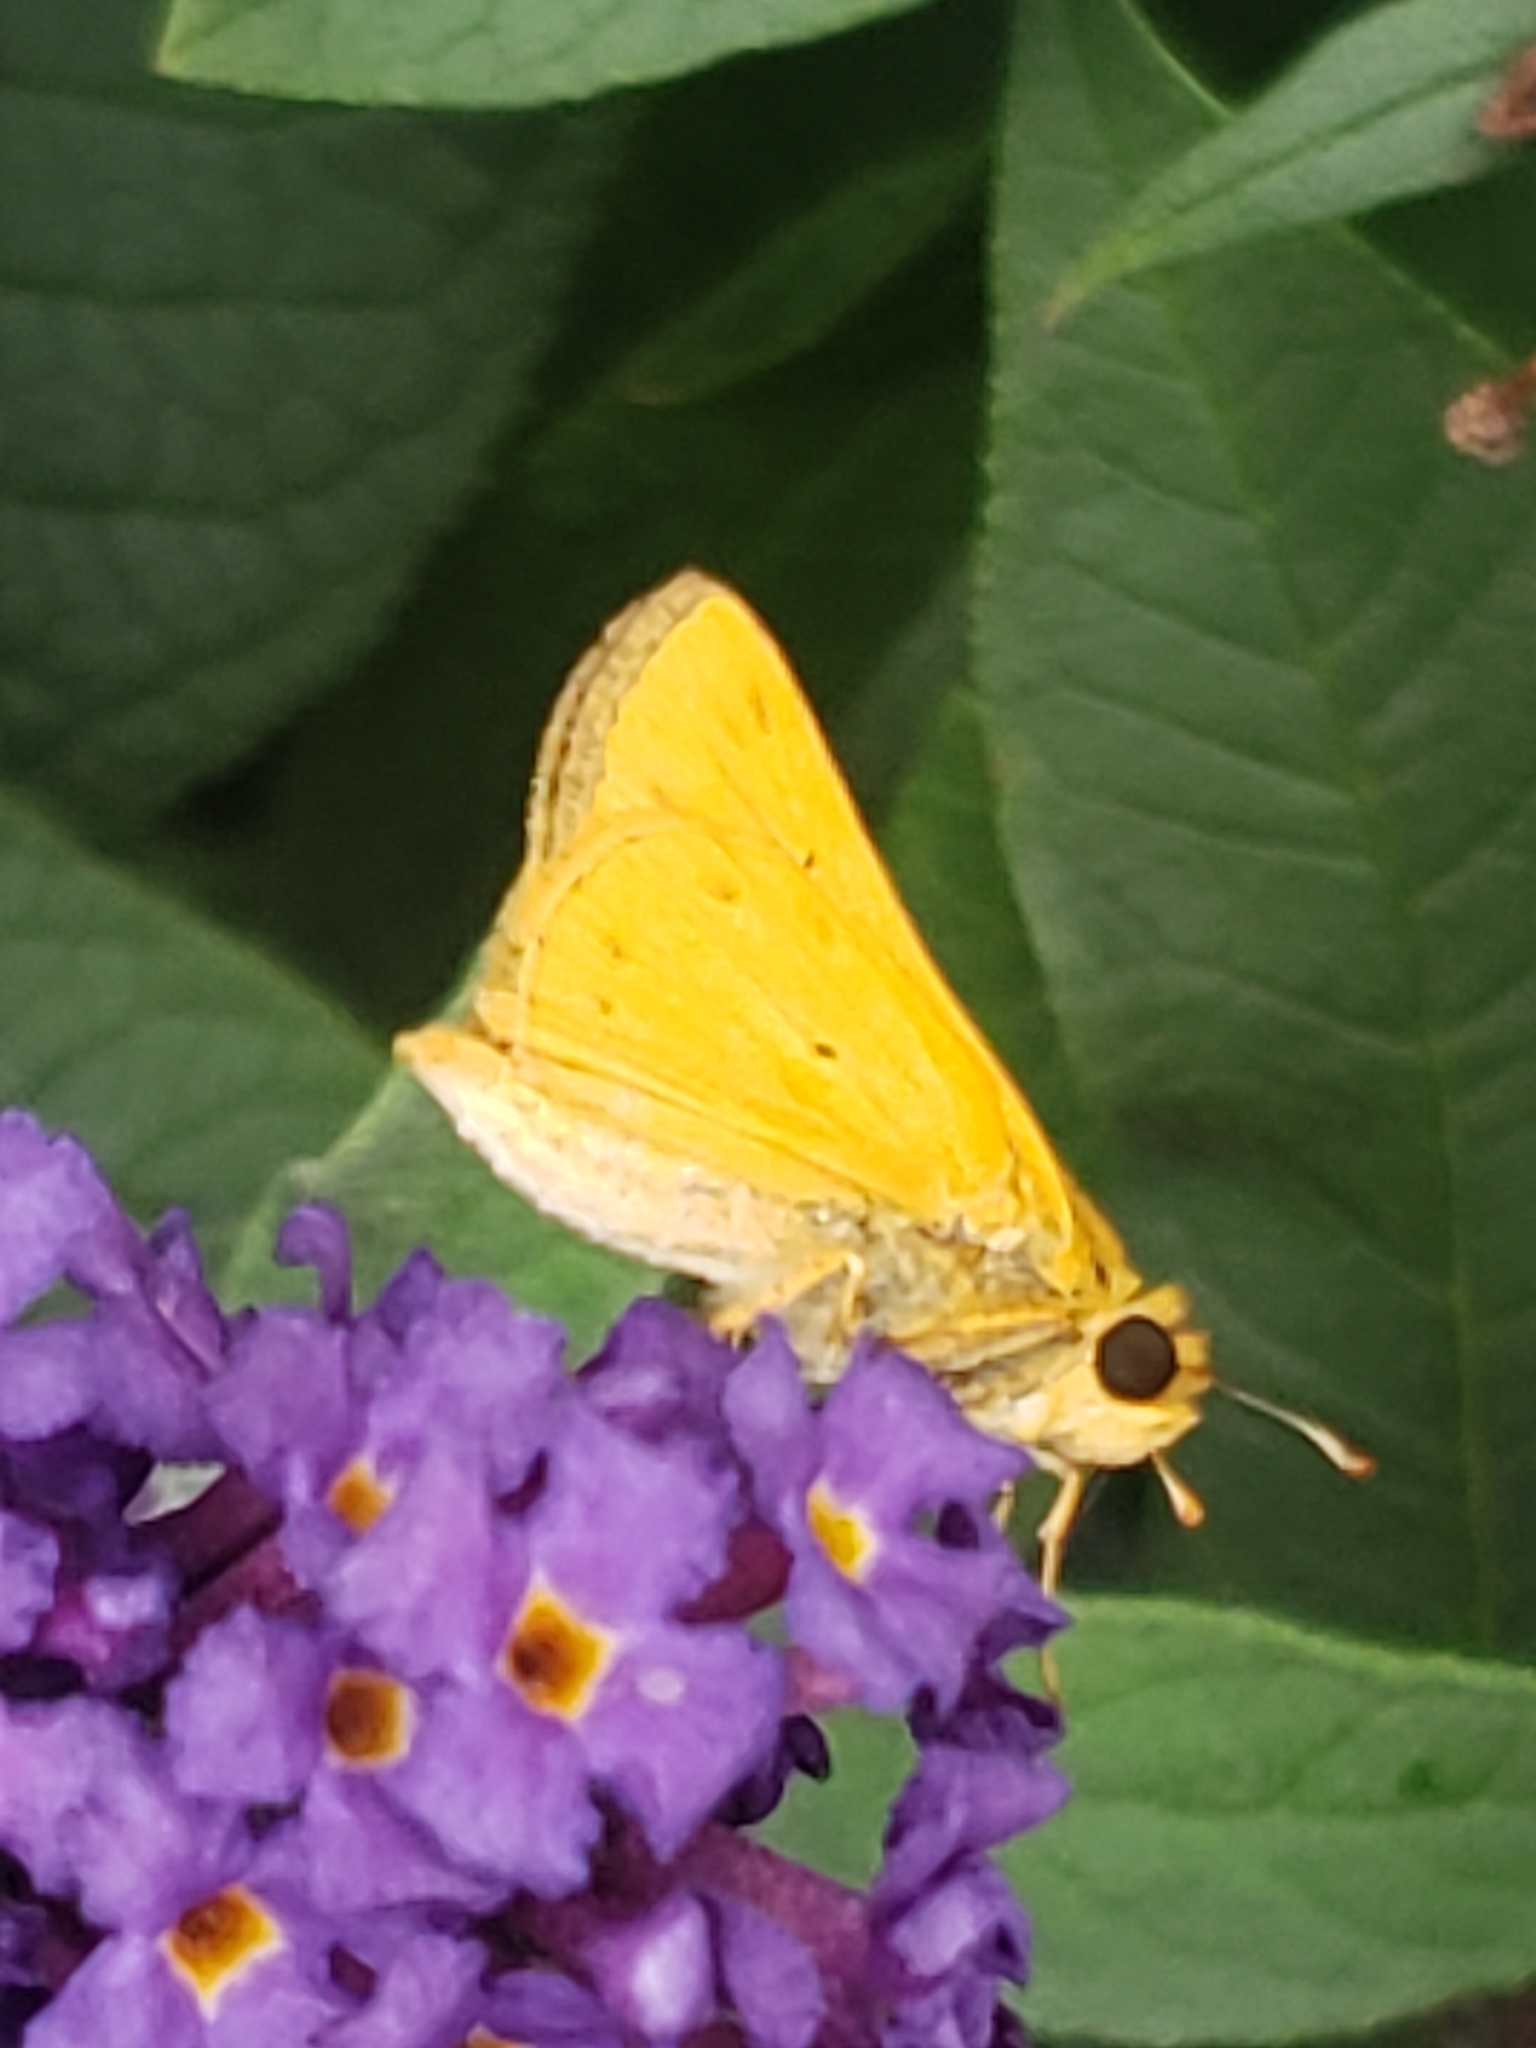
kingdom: Animalia
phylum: Arthropoda
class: Insecta
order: Lepidoptera
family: Hesperiidae
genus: Hylephila
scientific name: Hylephila phyleus
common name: Fiery skipper
